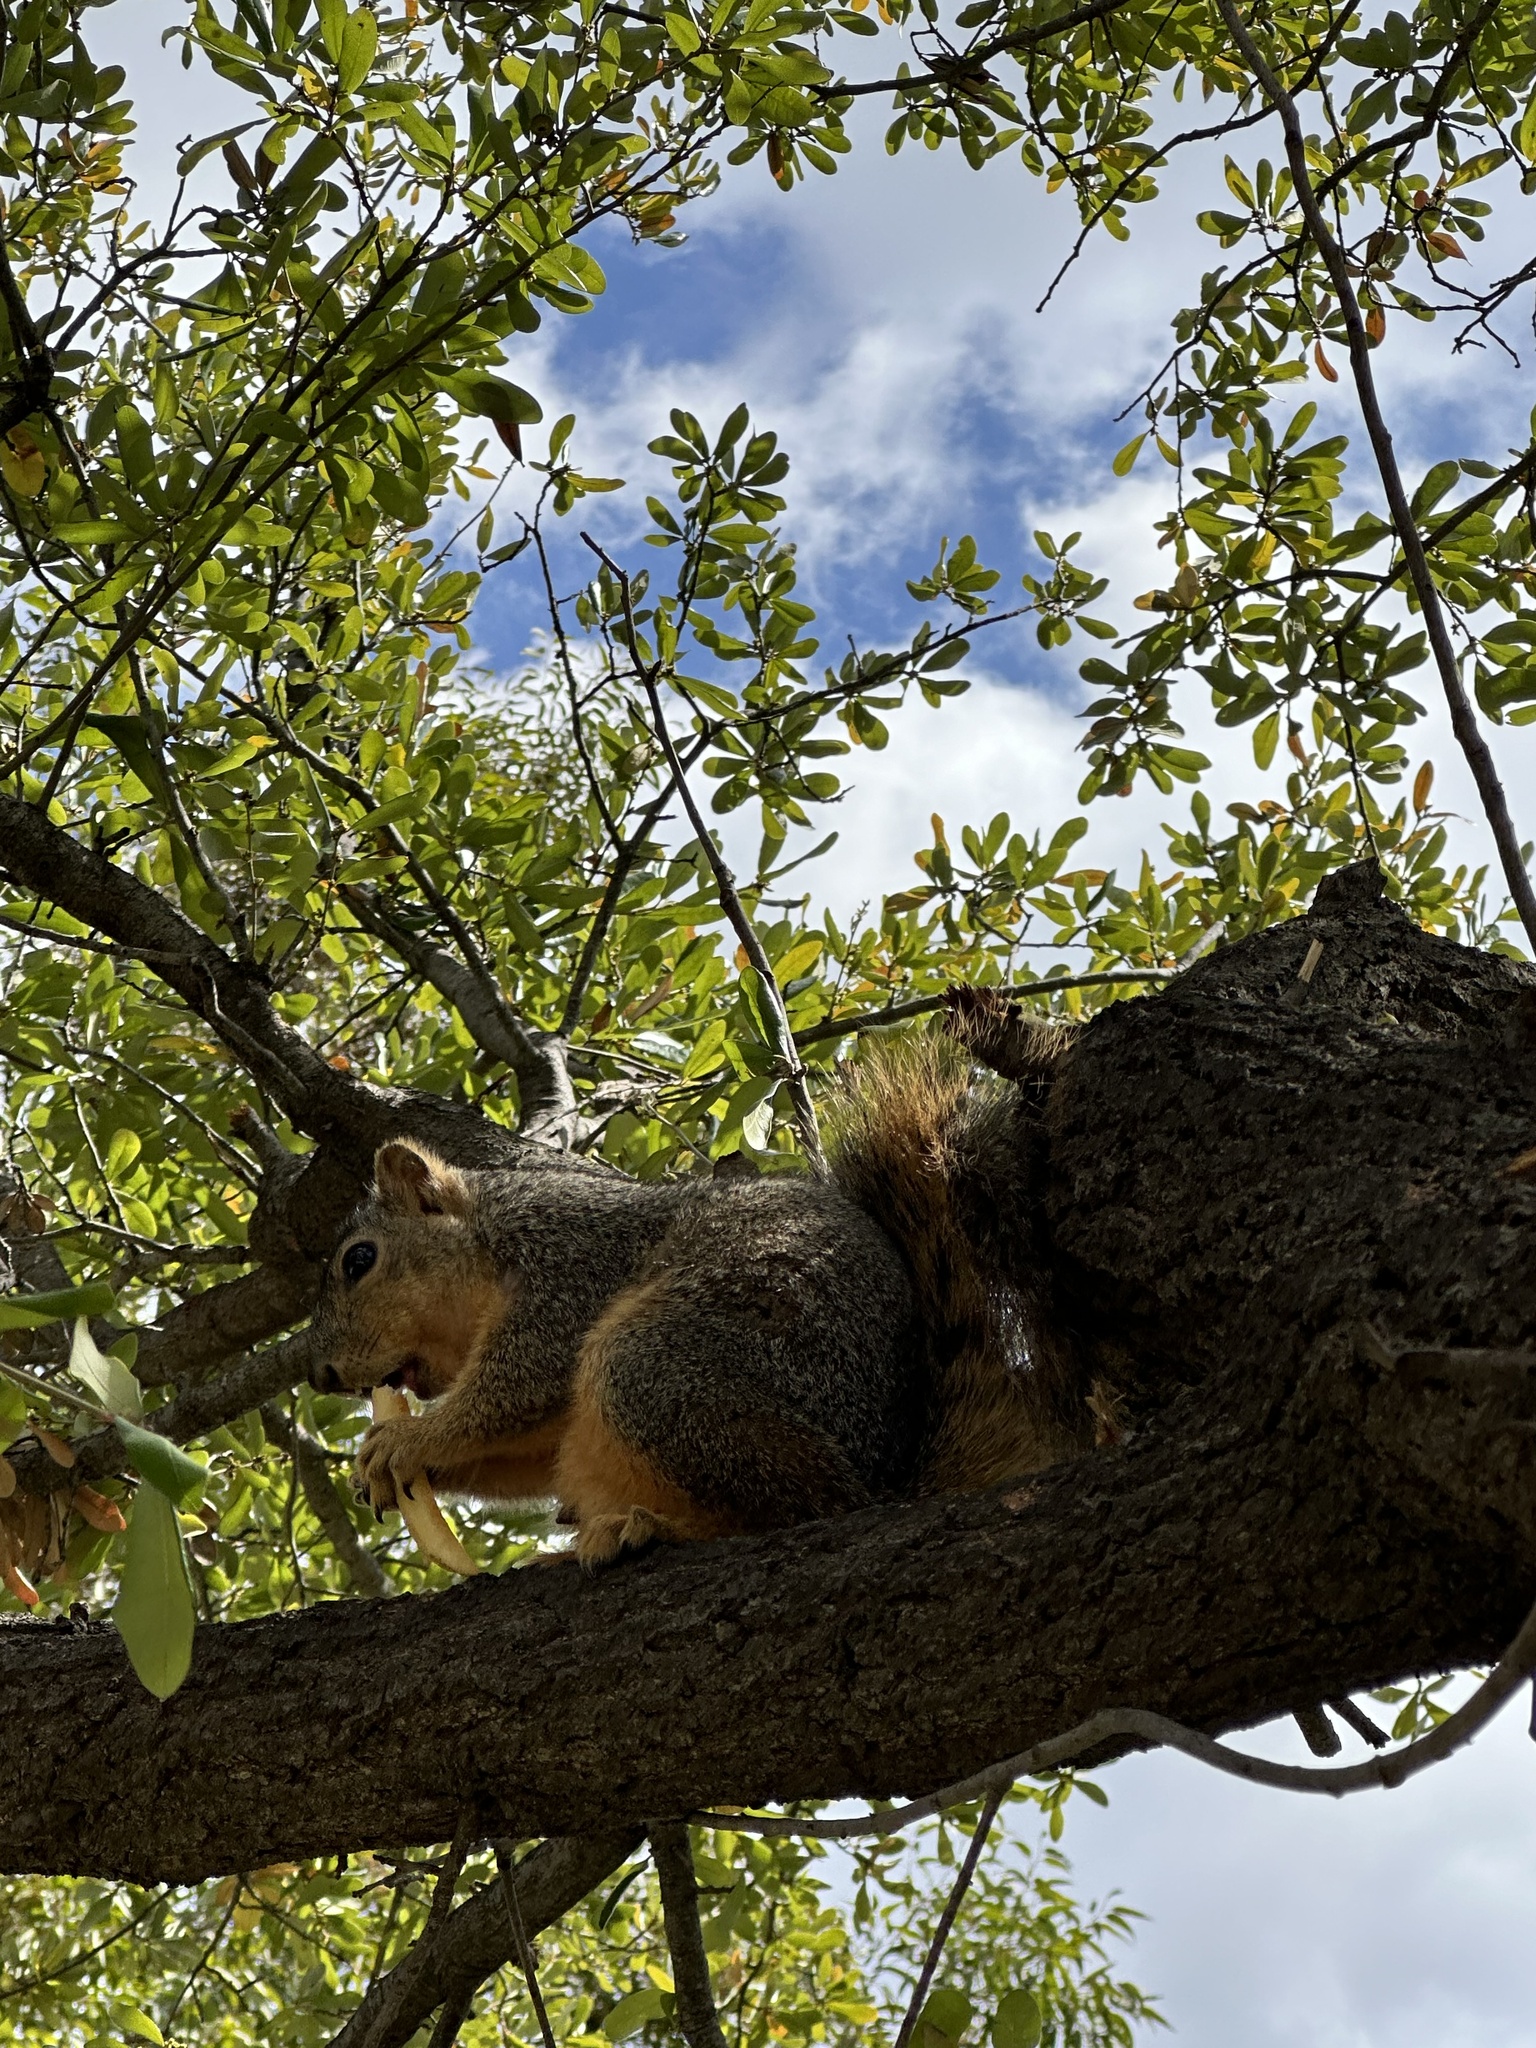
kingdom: Animalia
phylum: Chordata
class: Mammalia
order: Rodentia
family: Sciuridae
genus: Sciurus
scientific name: Sciurus niger
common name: Fox squirrel
